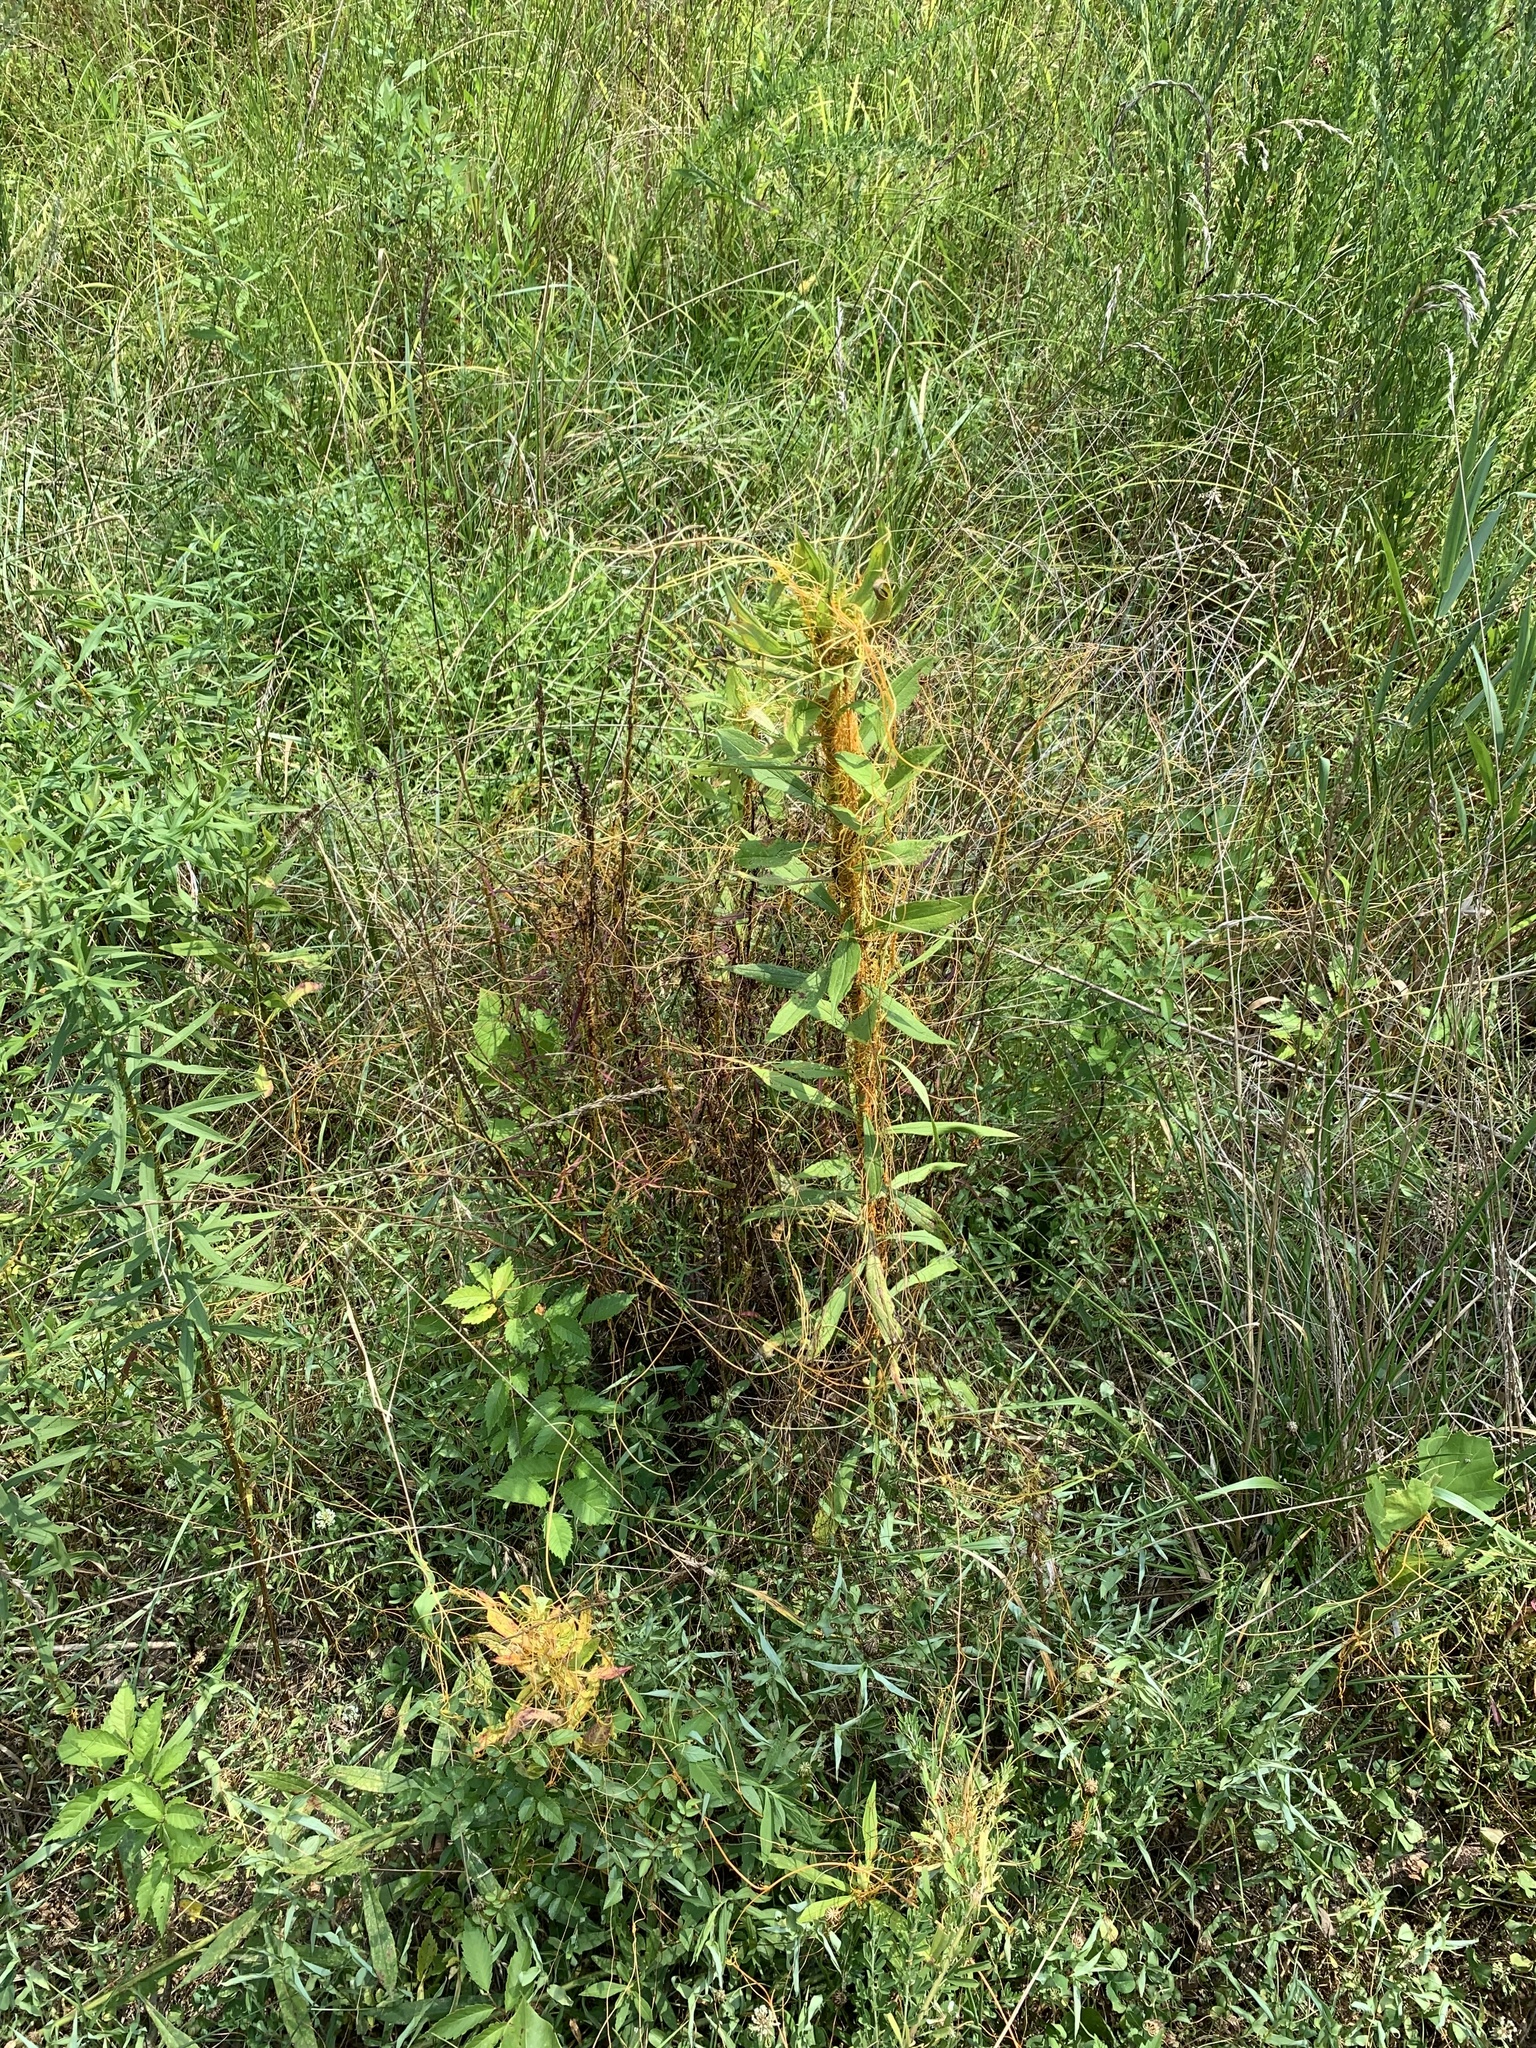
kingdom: Plantae
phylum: Tracheophyta
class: Magnoliopsida
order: Solanales
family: Convolvulaceae
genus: Cuscuta
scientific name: Cuscuta campestris
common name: Yellow dodder
